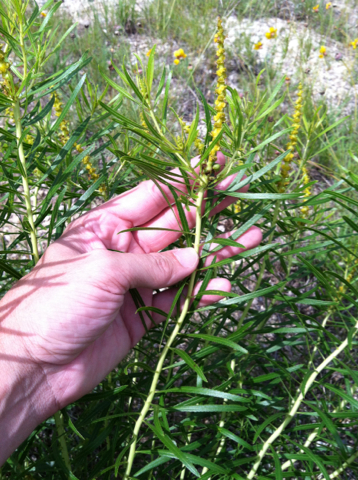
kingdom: Plantae
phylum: Tracheophyta
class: Magnoliopsida
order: Malpighiales
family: Euphorbiaceae
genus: Stillingia
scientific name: Stillingia texana
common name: Texas stillingia
